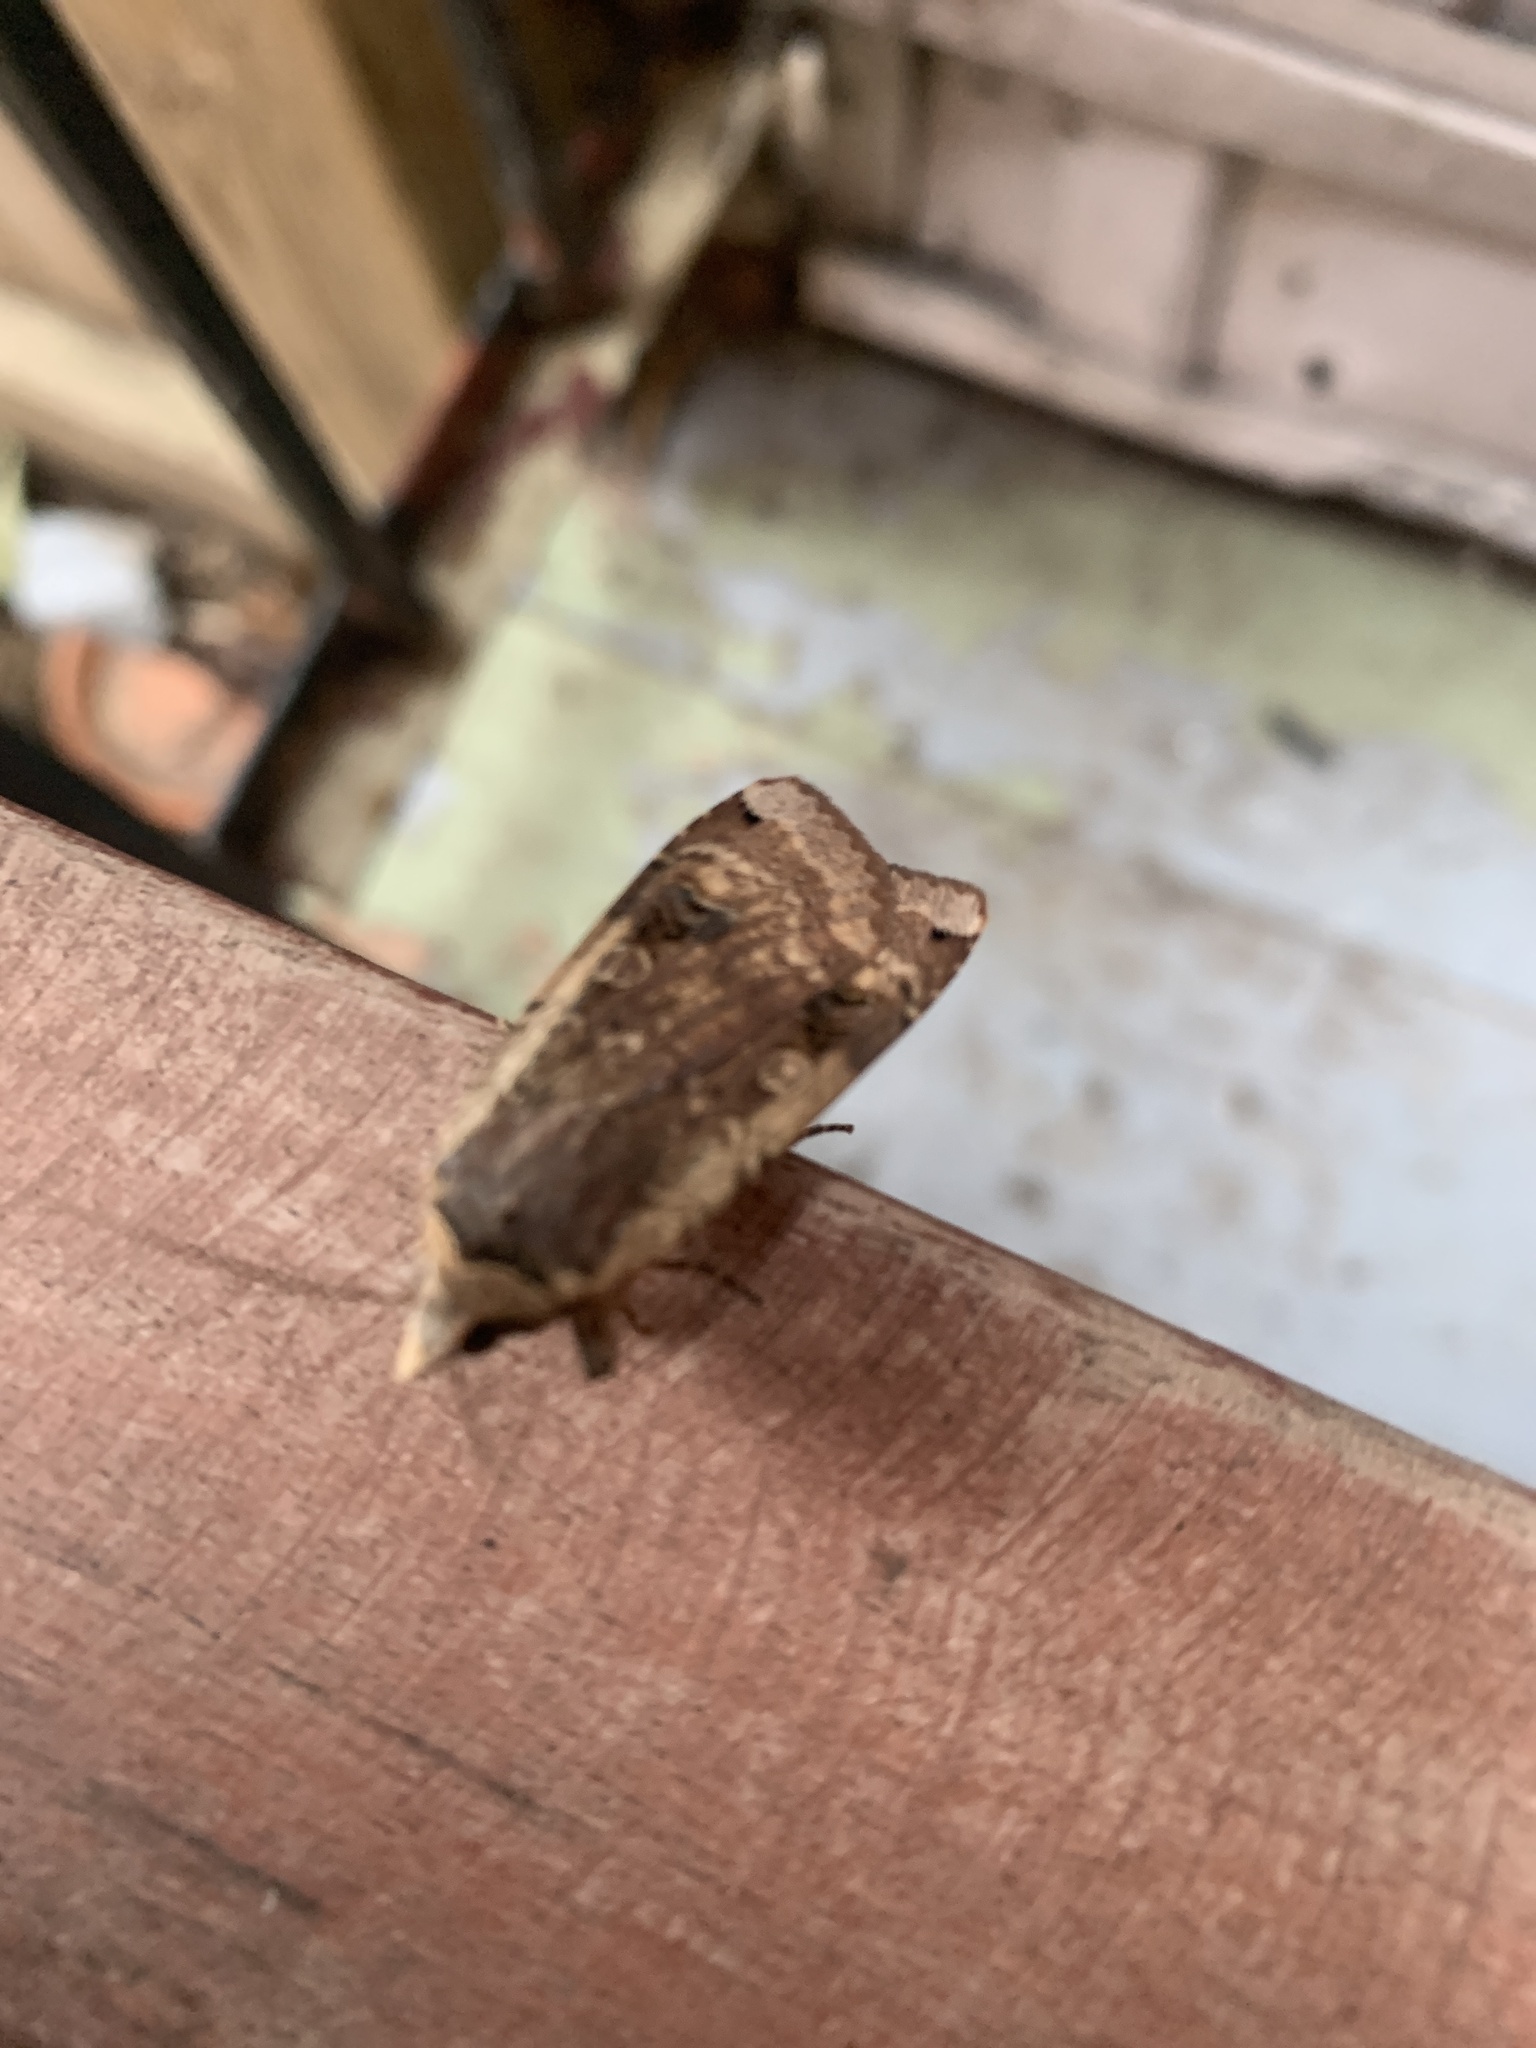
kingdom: Animalia
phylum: Arthropoda
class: Insecta
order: Lepidoptera
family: Noctuidae
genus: Noctua
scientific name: Noctua pronuba
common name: Large yellow underwing
